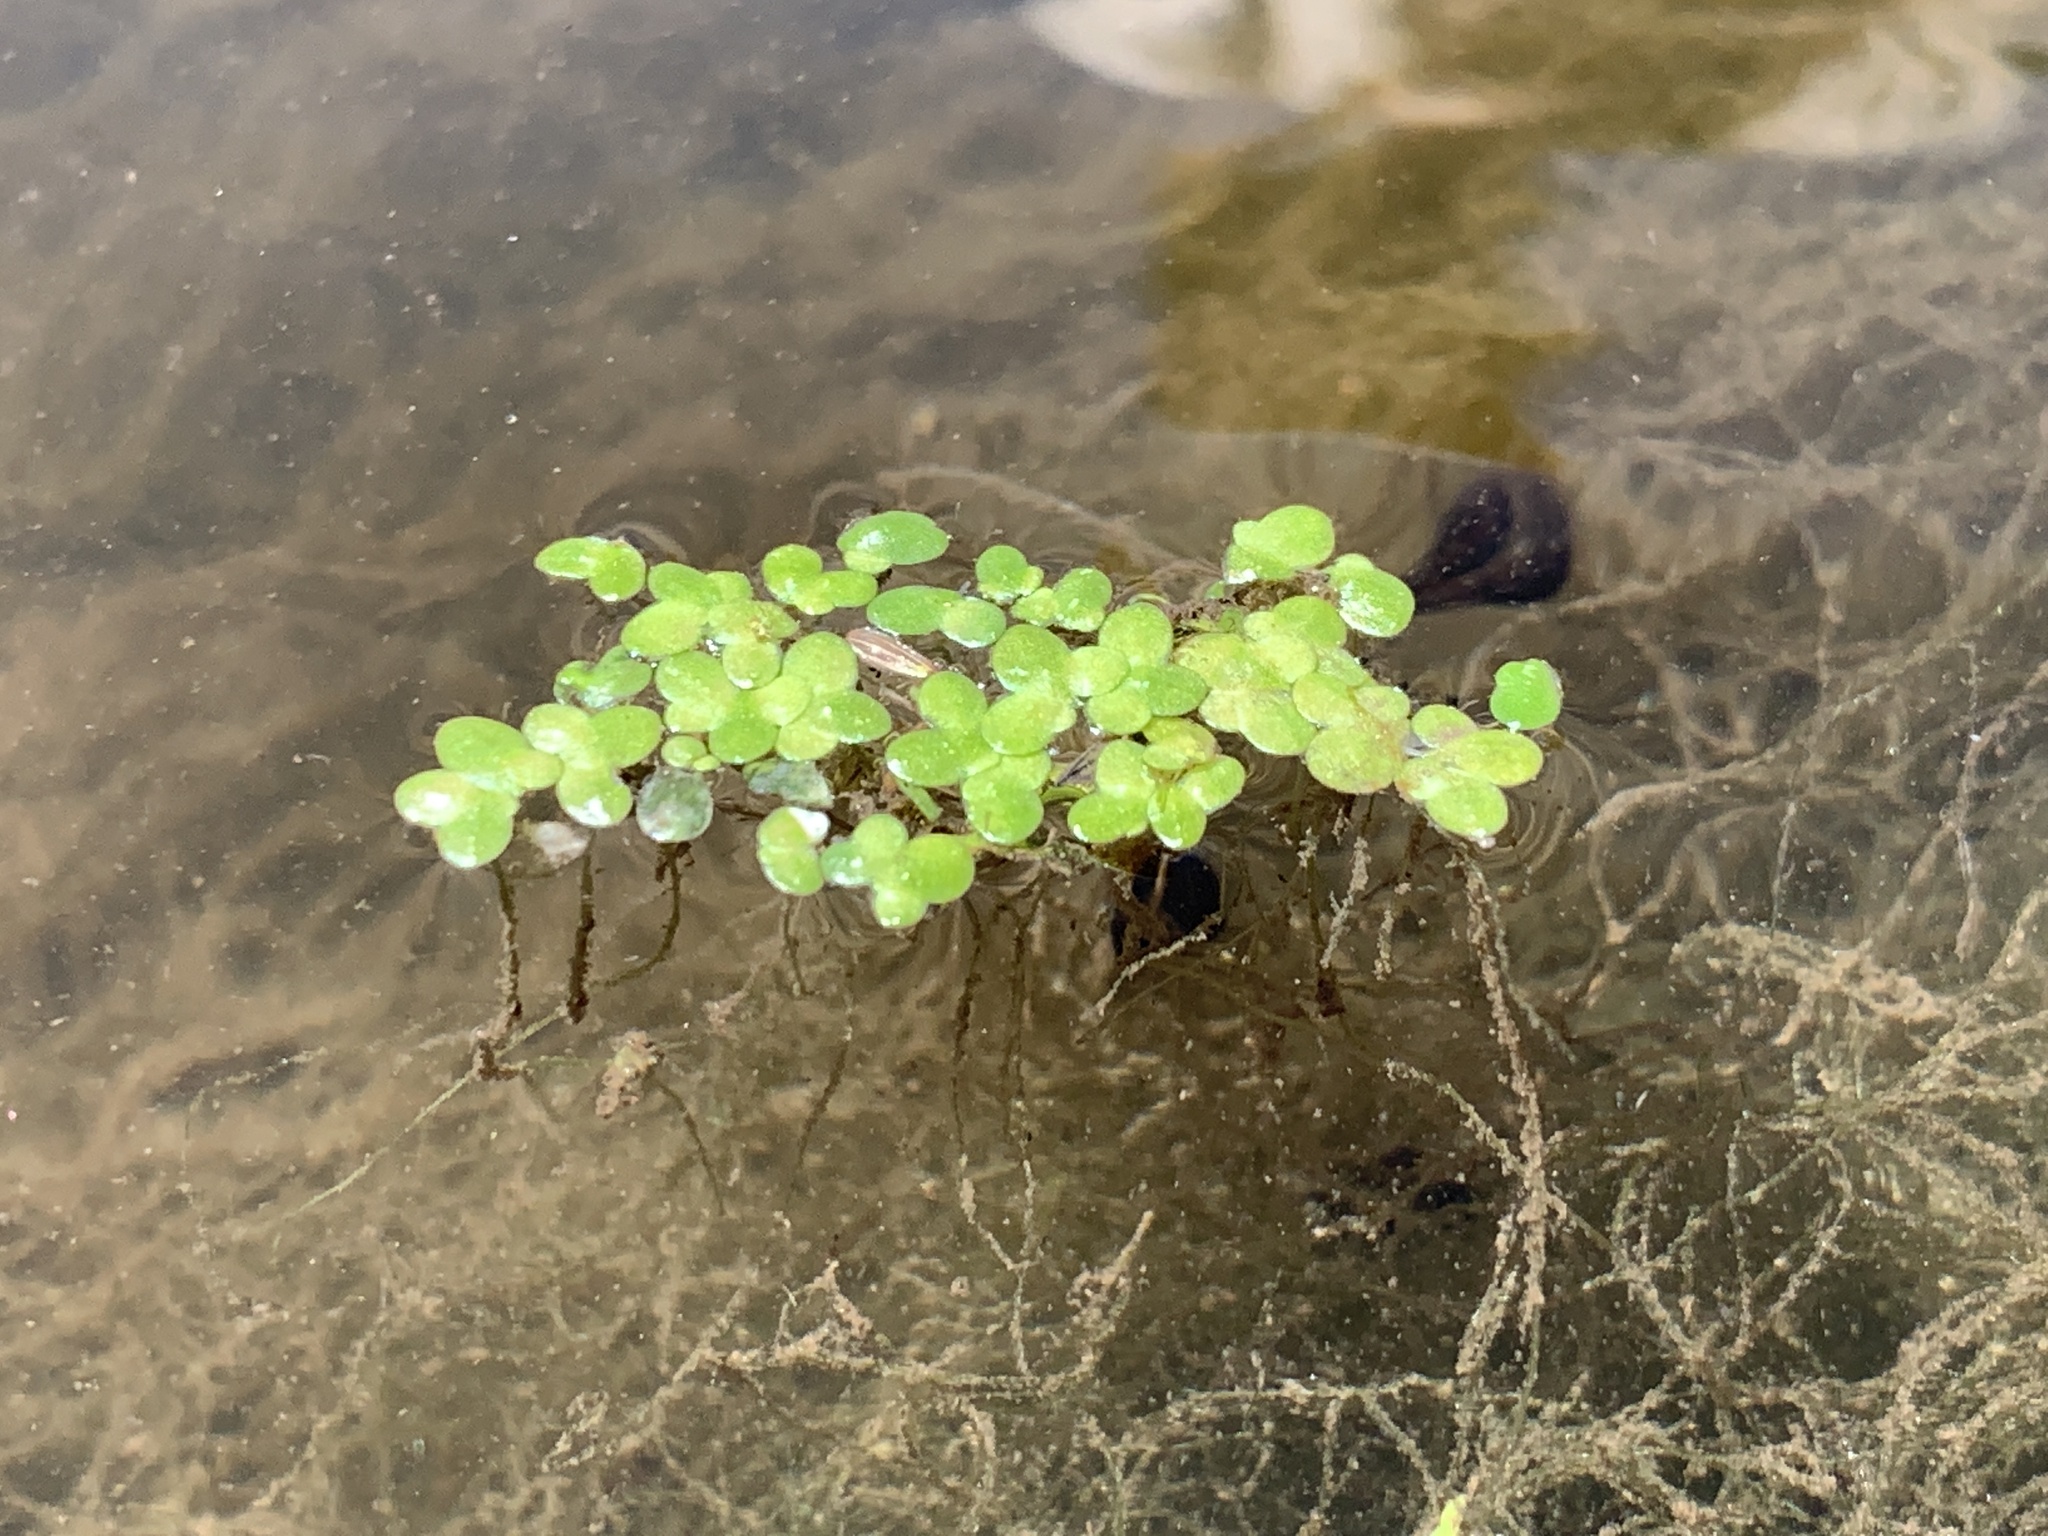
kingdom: Plantae
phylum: Tracheophyta
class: Liliopsida
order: Alismatales
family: Araceae
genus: Lemna
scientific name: Lemna minor
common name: Common duckweed
